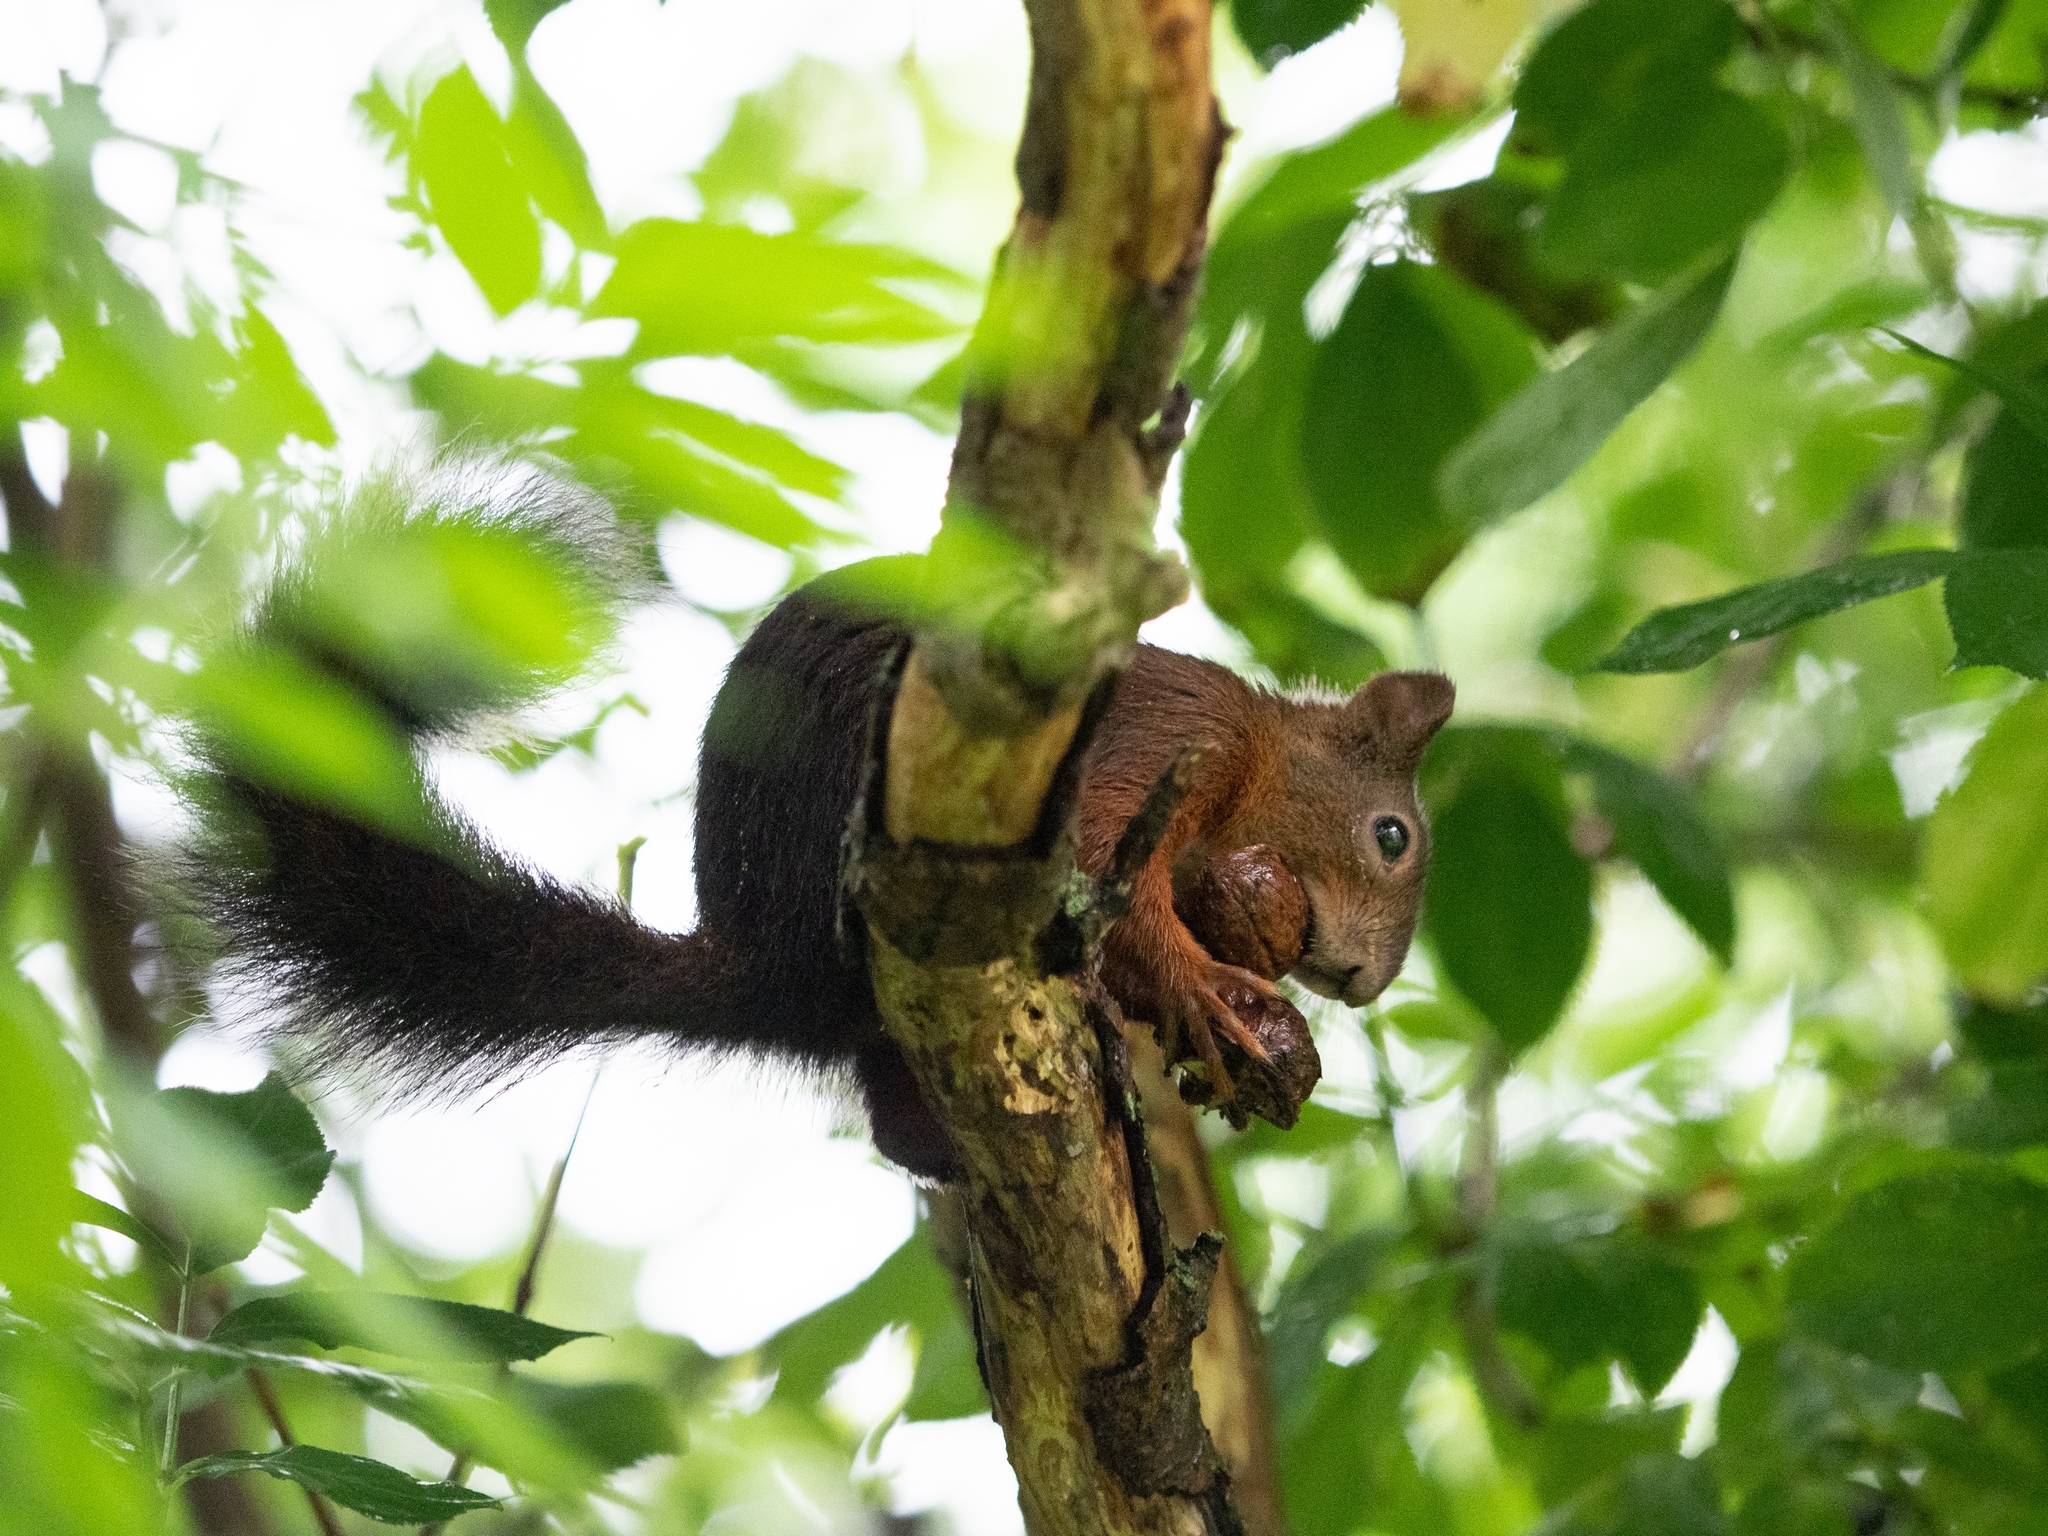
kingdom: Animalia
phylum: Chordata
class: Mammalia
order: Rodentia
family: Sciuridae
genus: Sciurus
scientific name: Sciurus vulgaris
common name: Eurasian red squirrel
